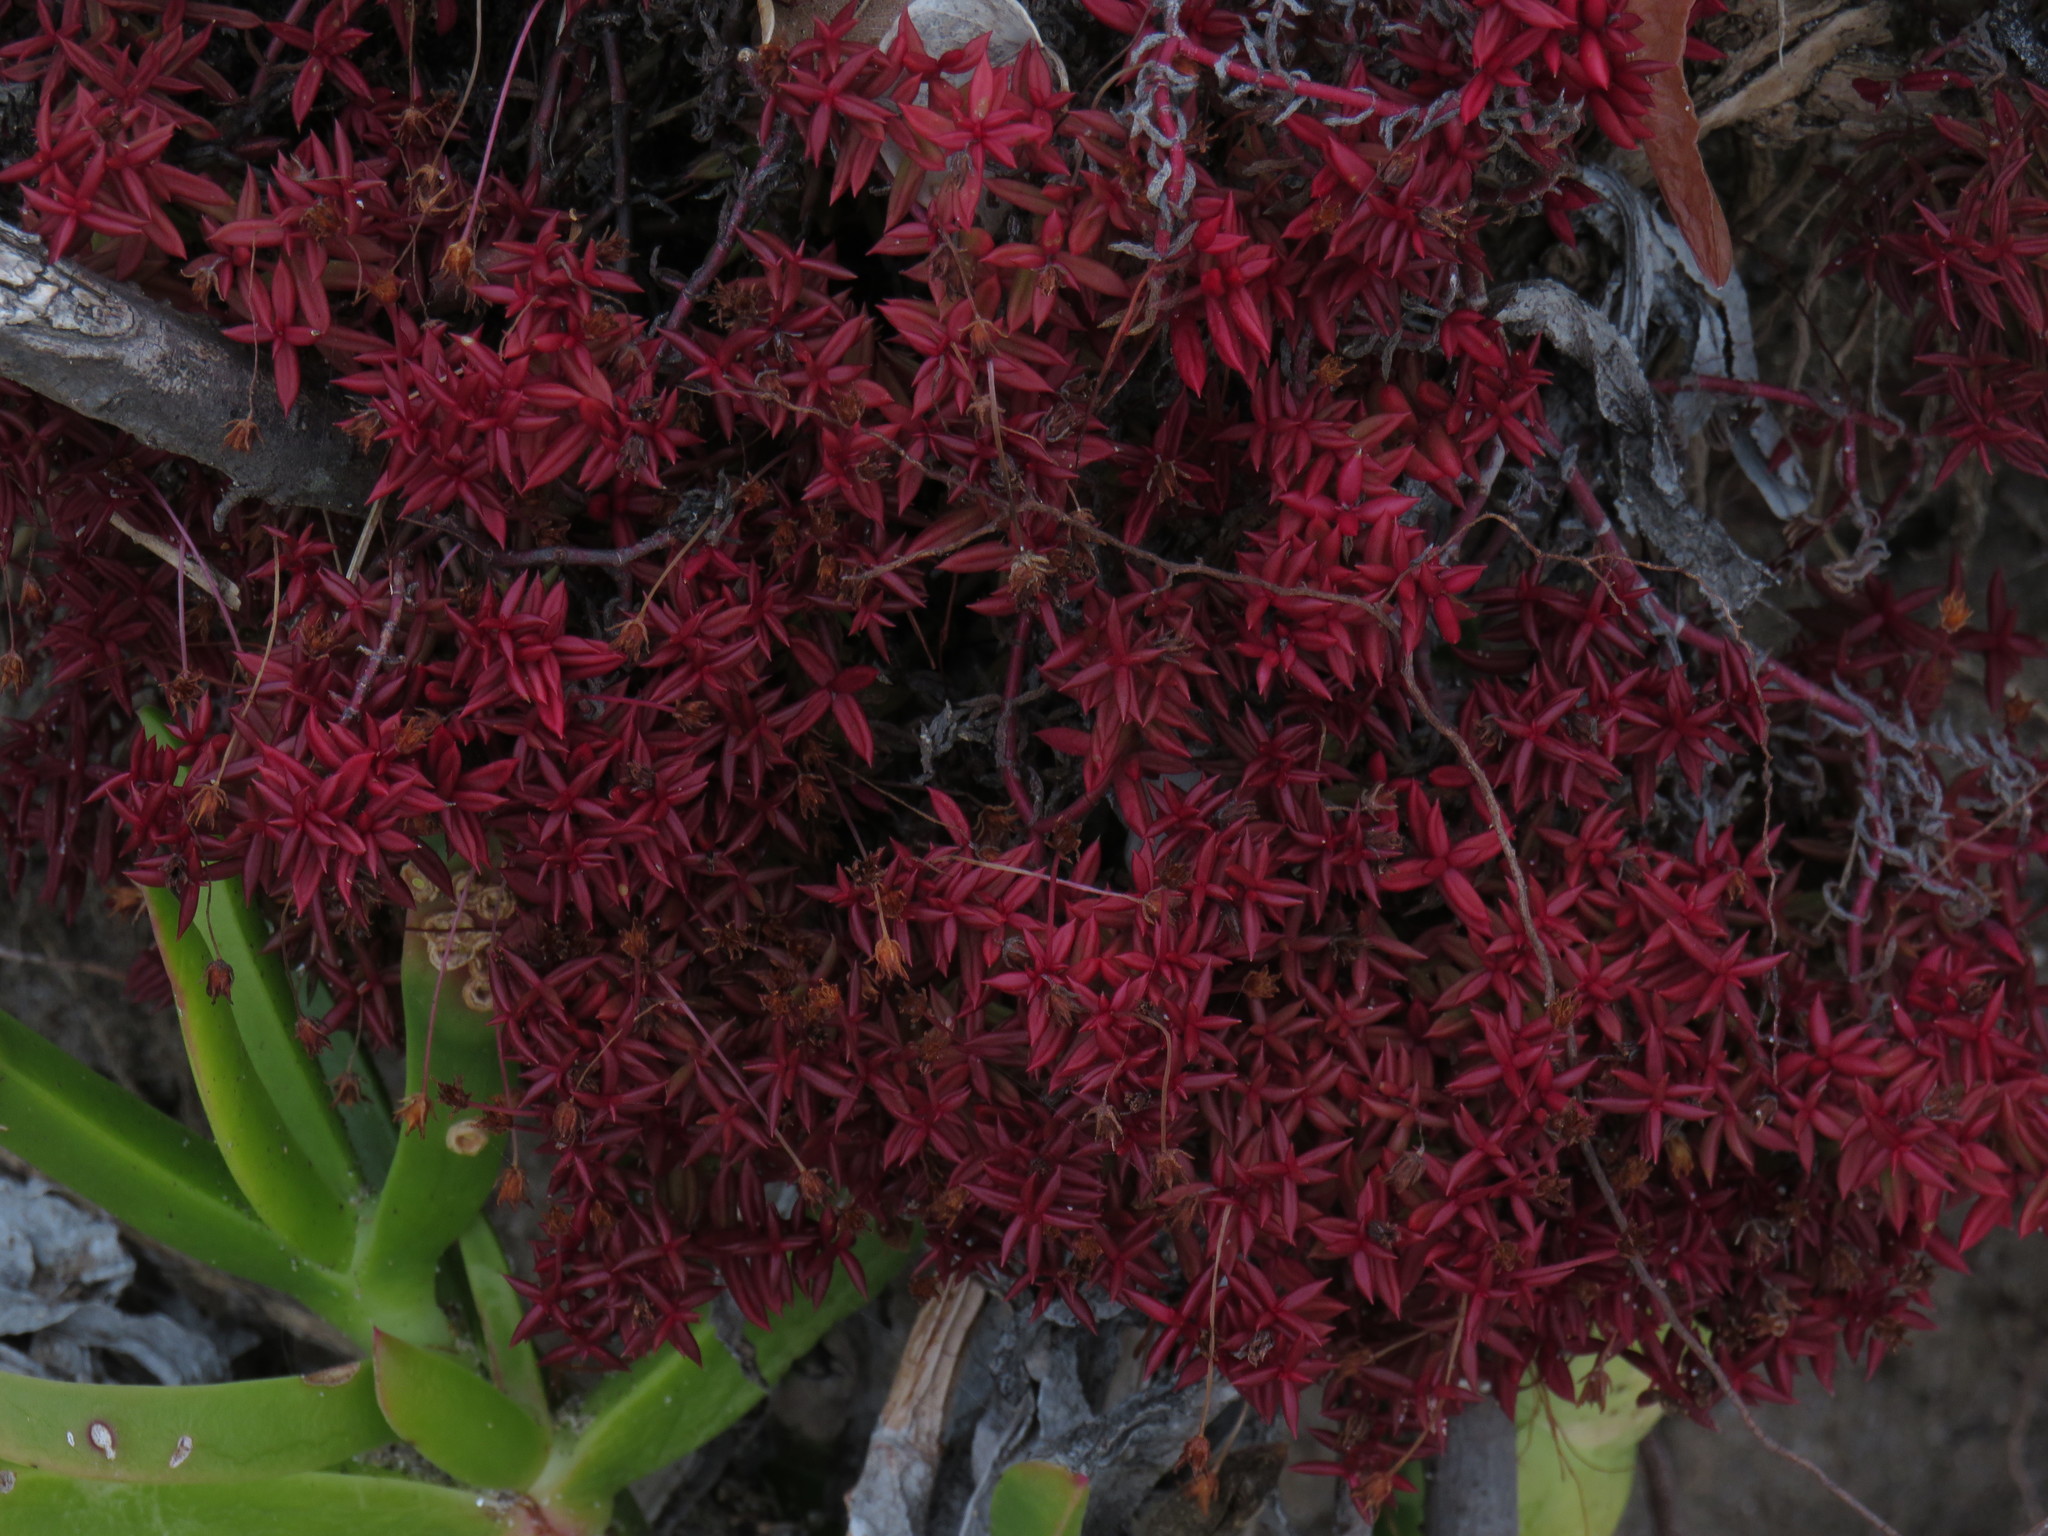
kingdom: Plantae
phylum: Tracheophyta
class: Magnoliopsida
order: Saxifragales
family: Crassulaceae
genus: Crassula
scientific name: Crassula expansa
